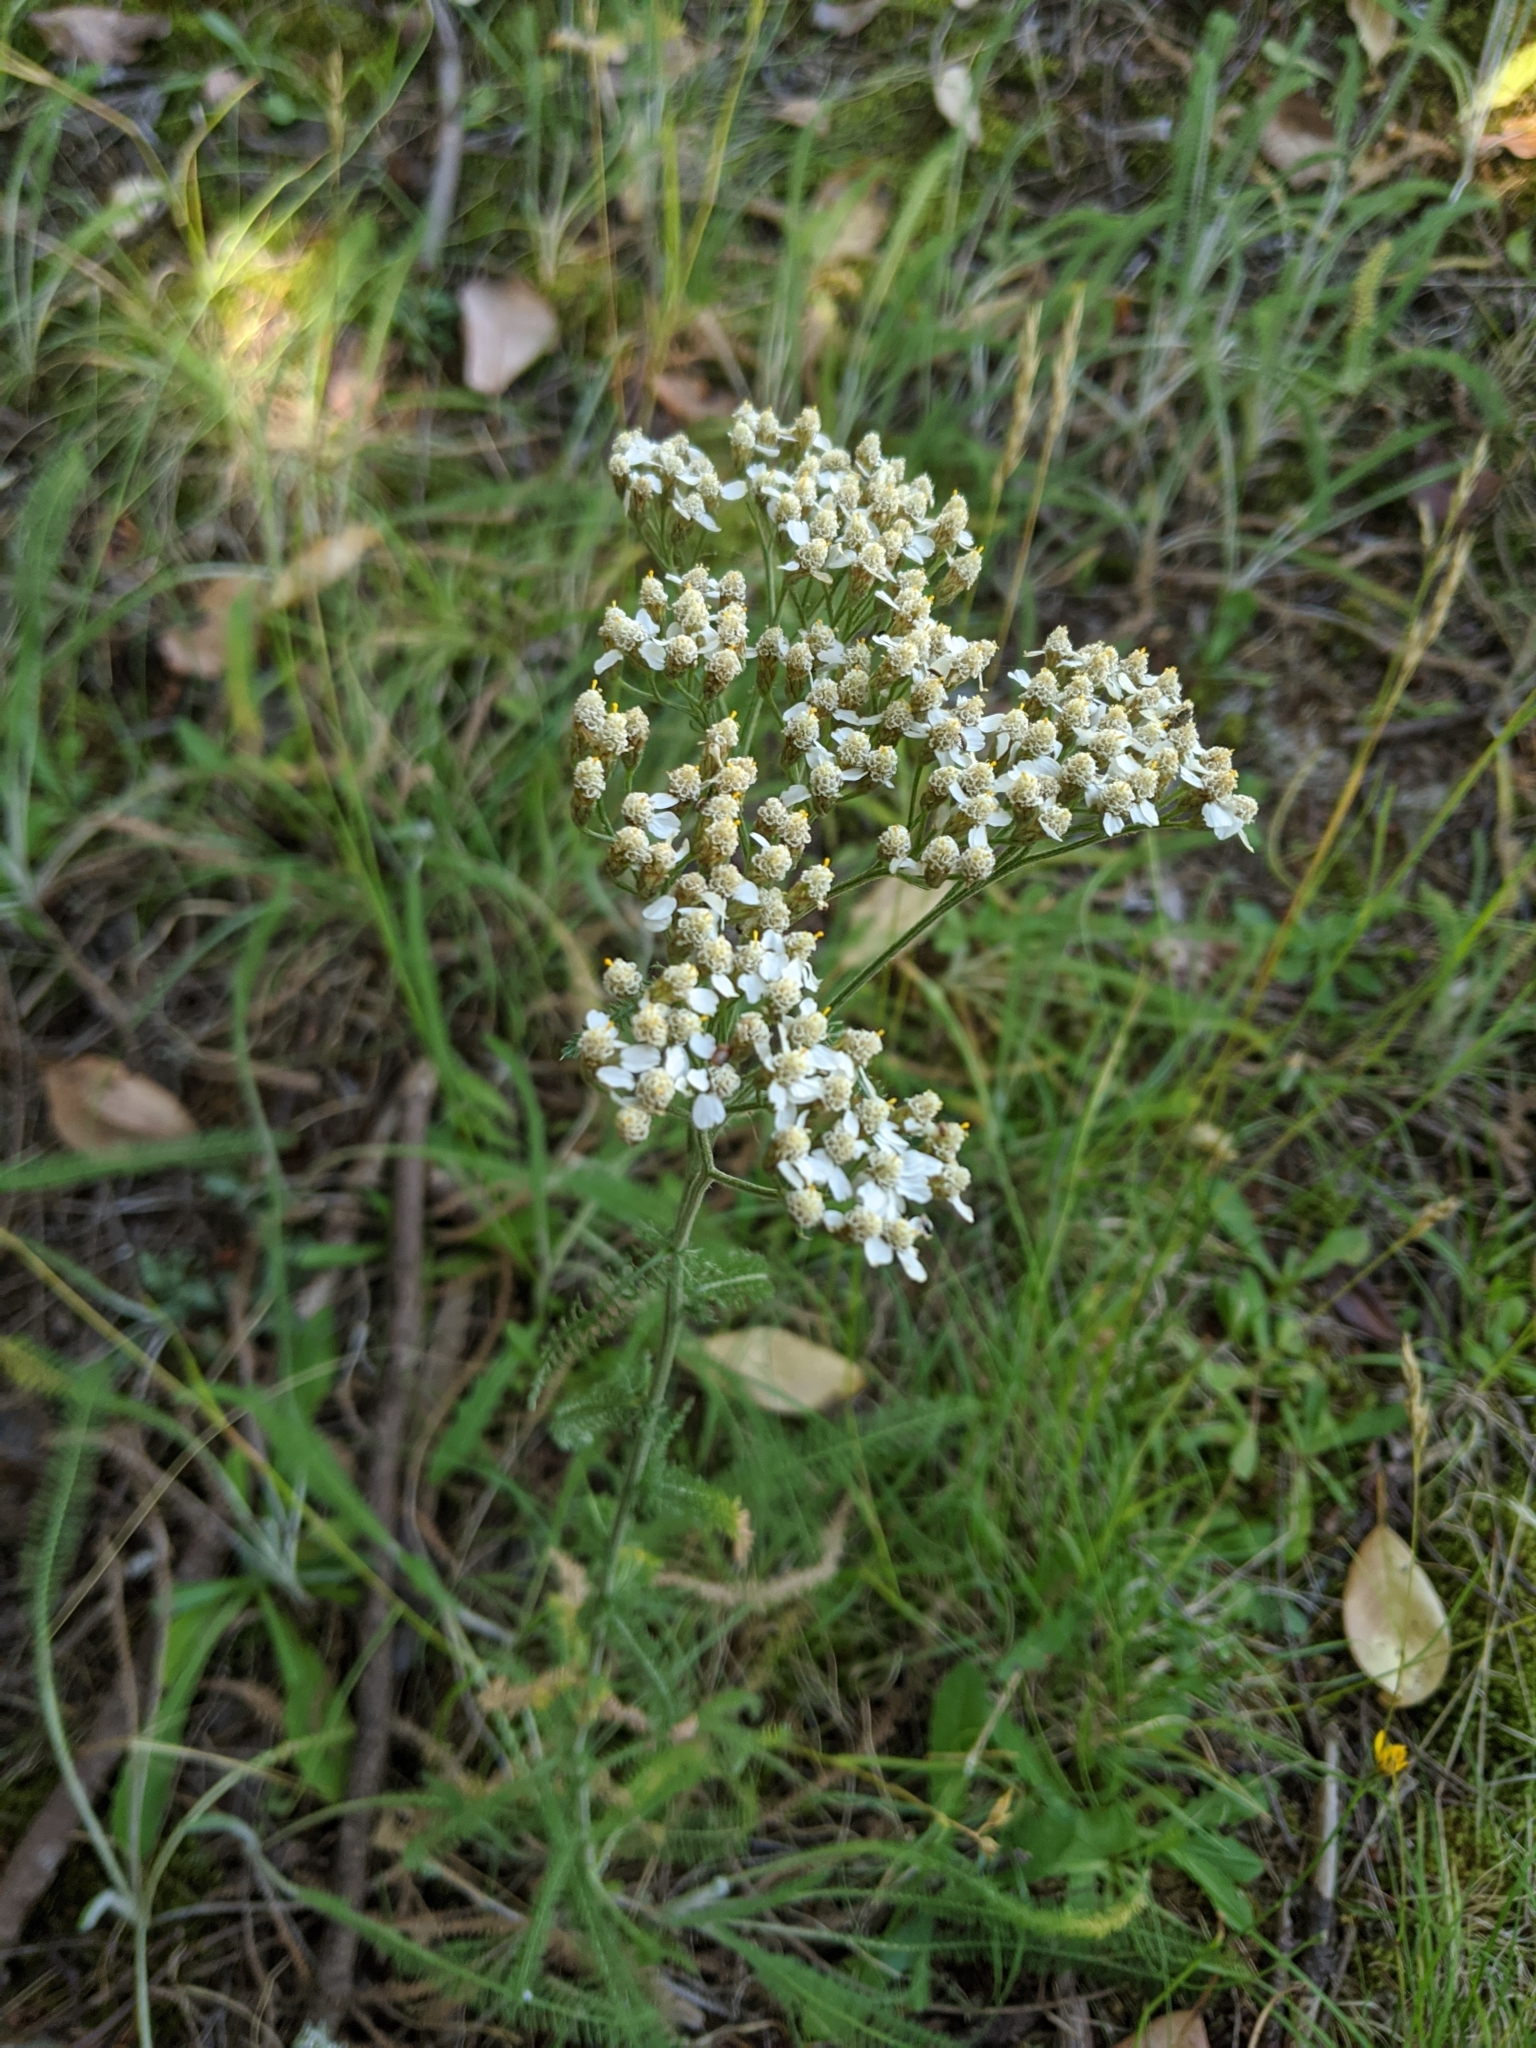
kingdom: Plantae
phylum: Tracheophyta
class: Magnoliopsida
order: Asterales
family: Asteraceae
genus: Achillea
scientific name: Achillea millefolium
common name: Yarrow
